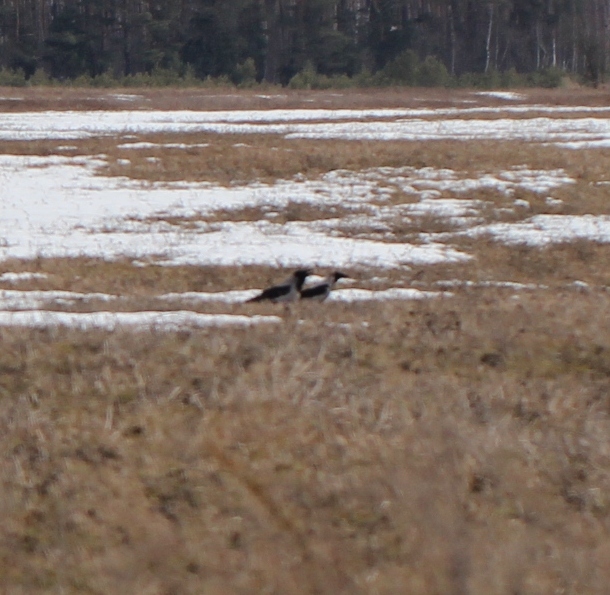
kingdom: Animalia
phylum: Chordata
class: Aves
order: Passeriformes
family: Corvidae
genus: Corvus
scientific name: Corvus cornix
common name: Hooded crow
